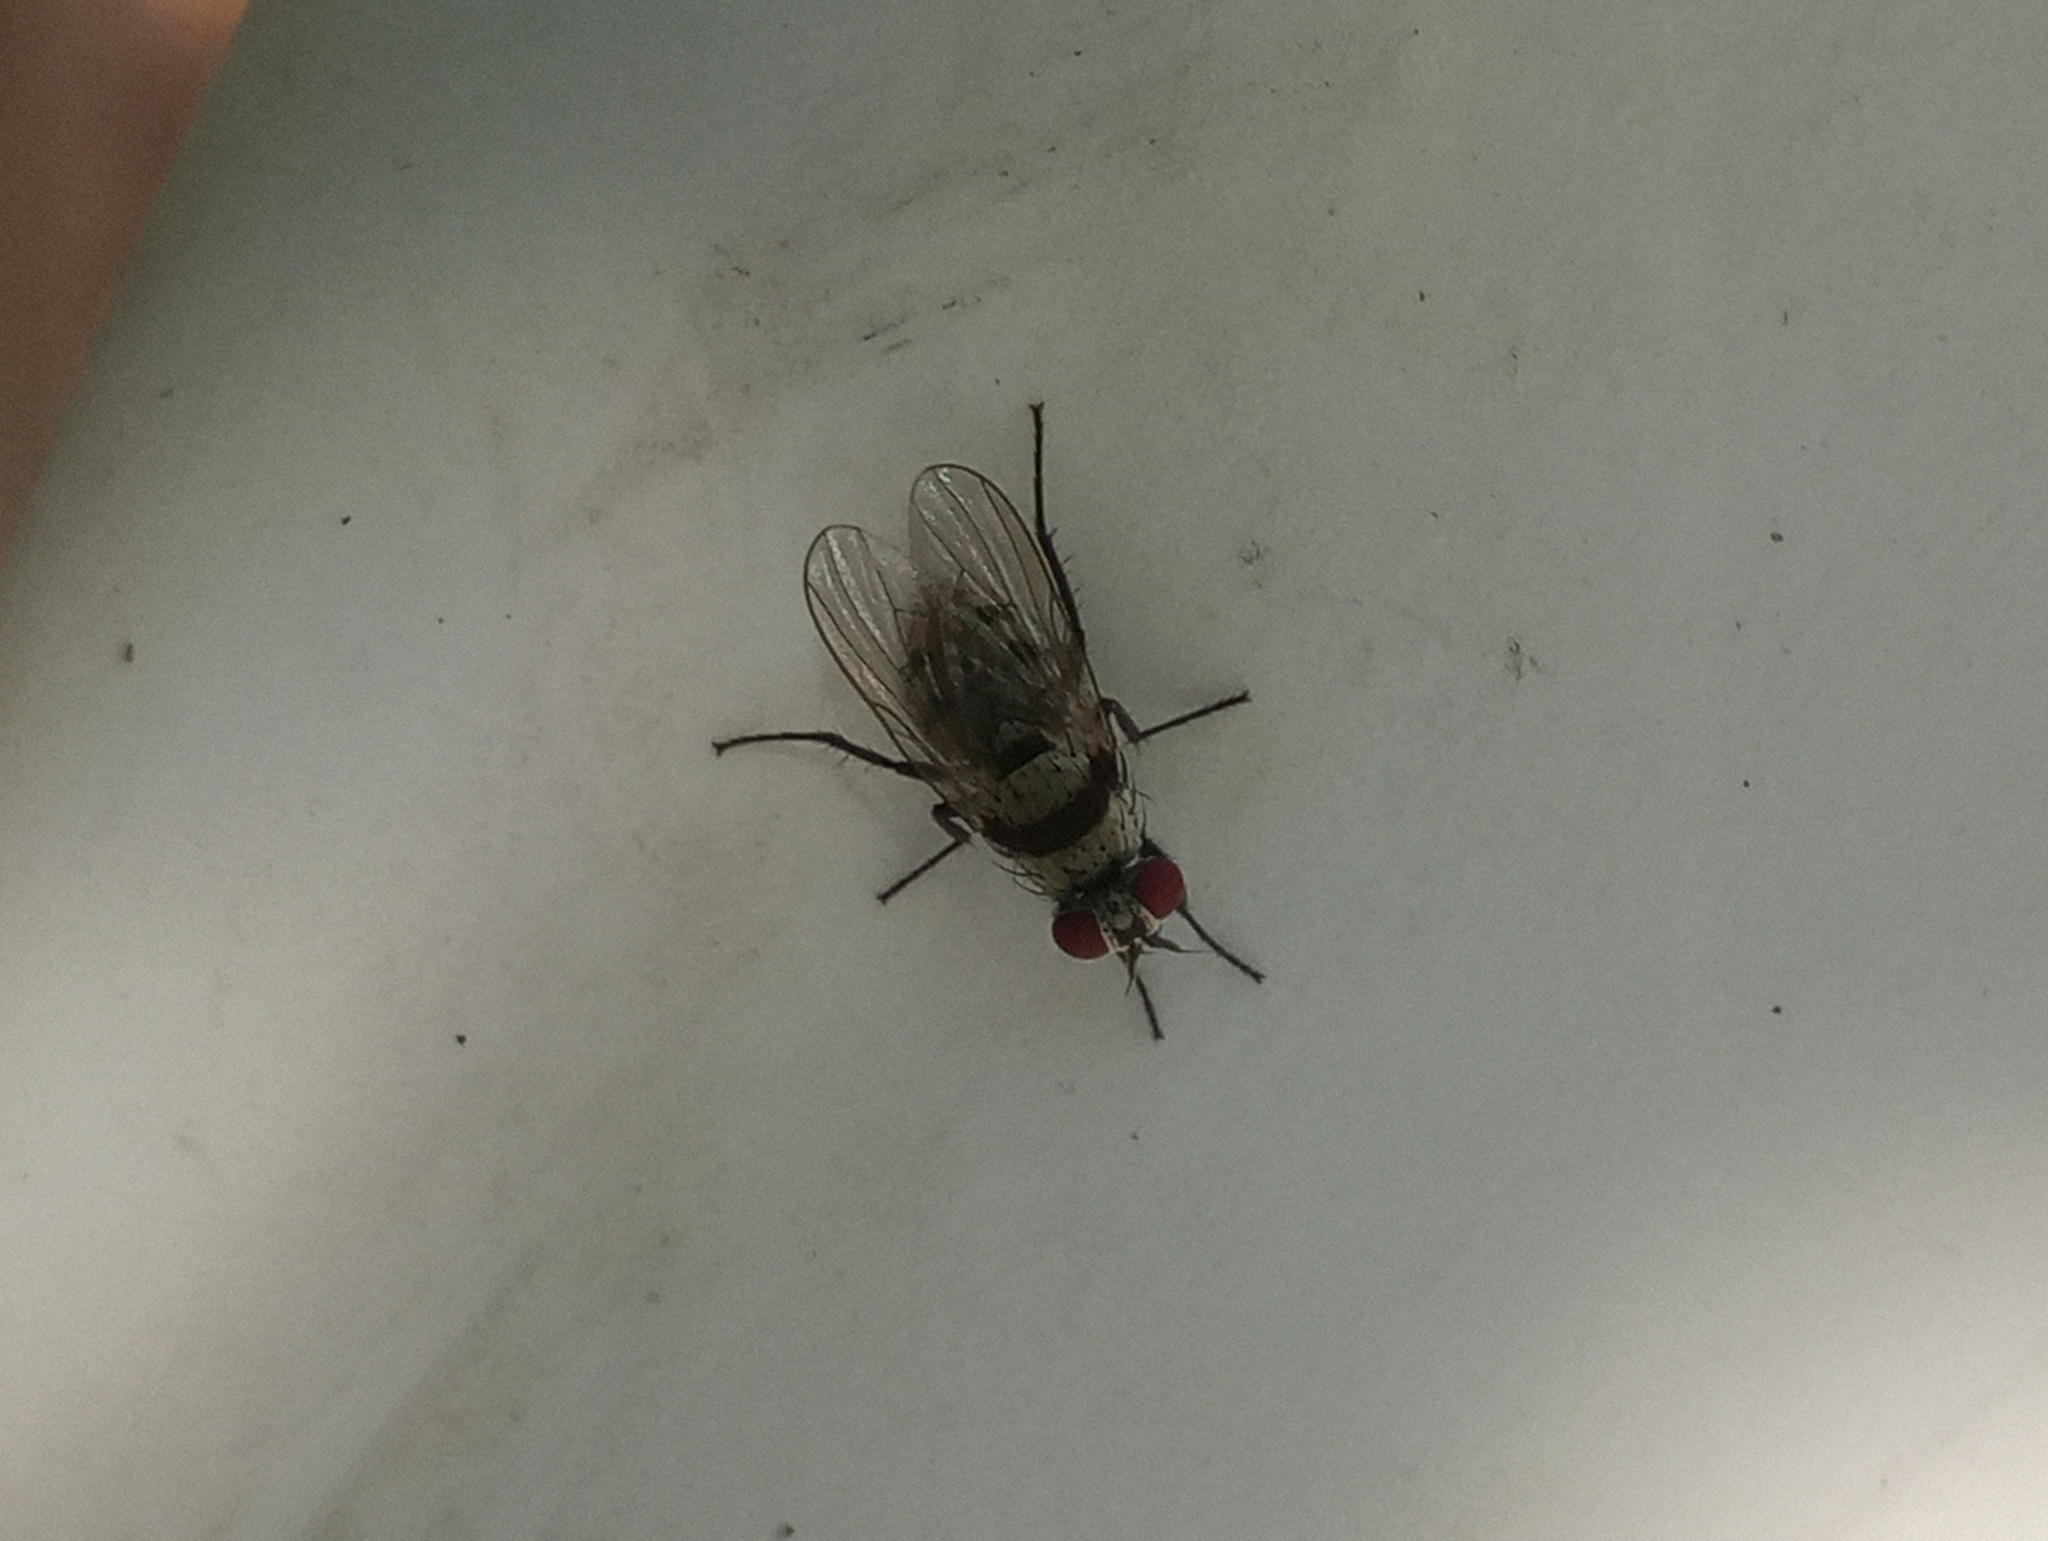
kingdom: Animalia
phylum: Arthropoda
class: Insecta
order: Diptera
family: Anthomyiidae
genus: Anthomyia
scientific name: Anthomyia illocata
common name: Fly
